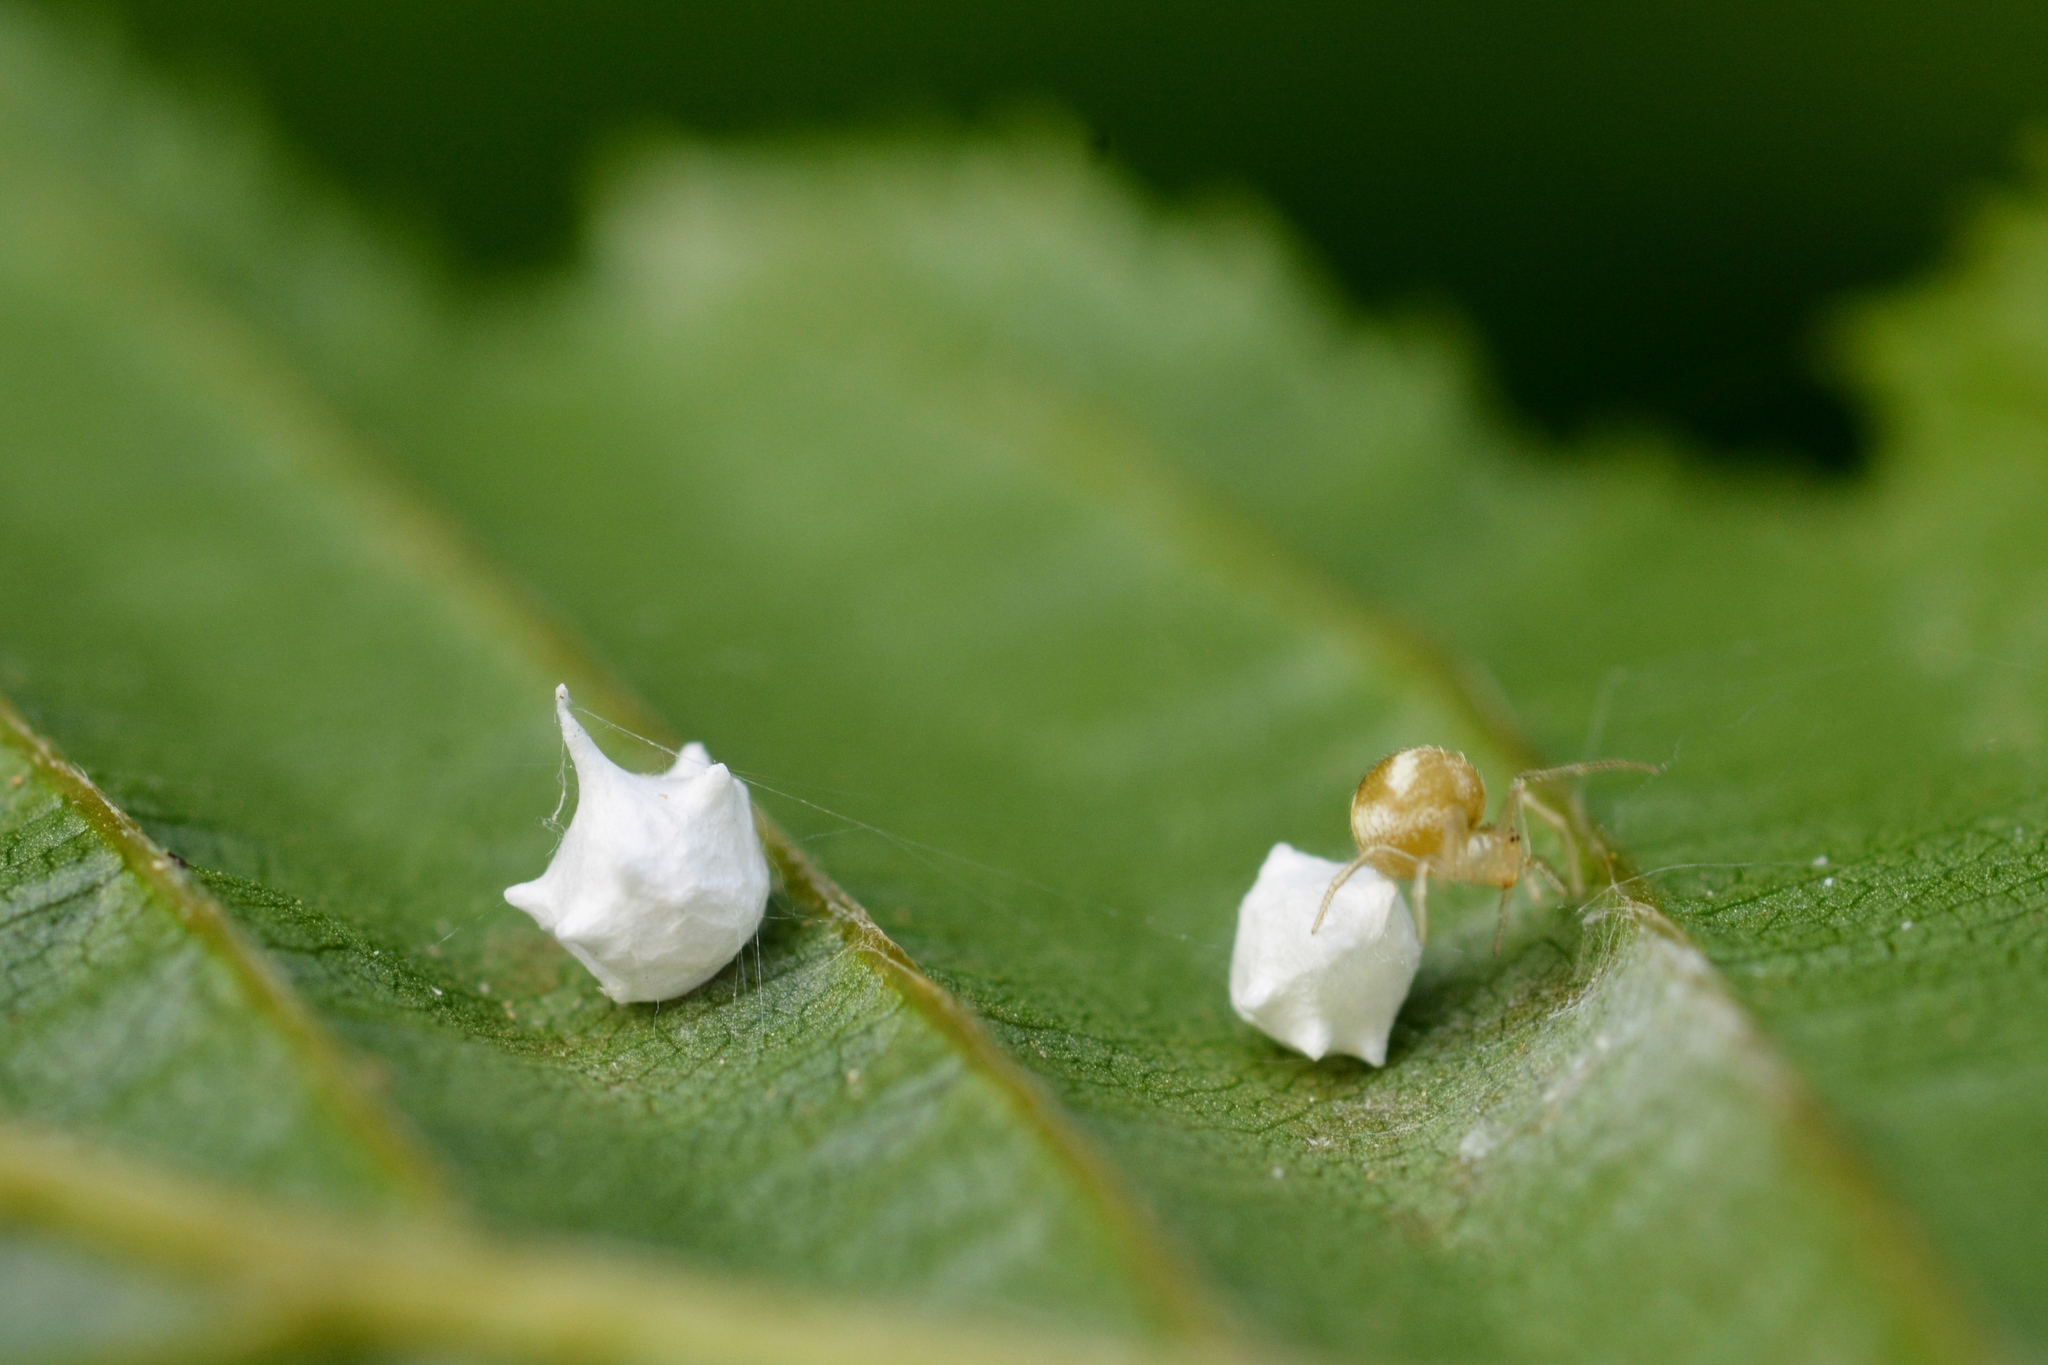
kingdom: Animalia
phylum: Arthropoda
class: Arachnida
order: Araneae
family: Theridiidae
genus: Paidiscura
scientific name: Paidiscura pallens
